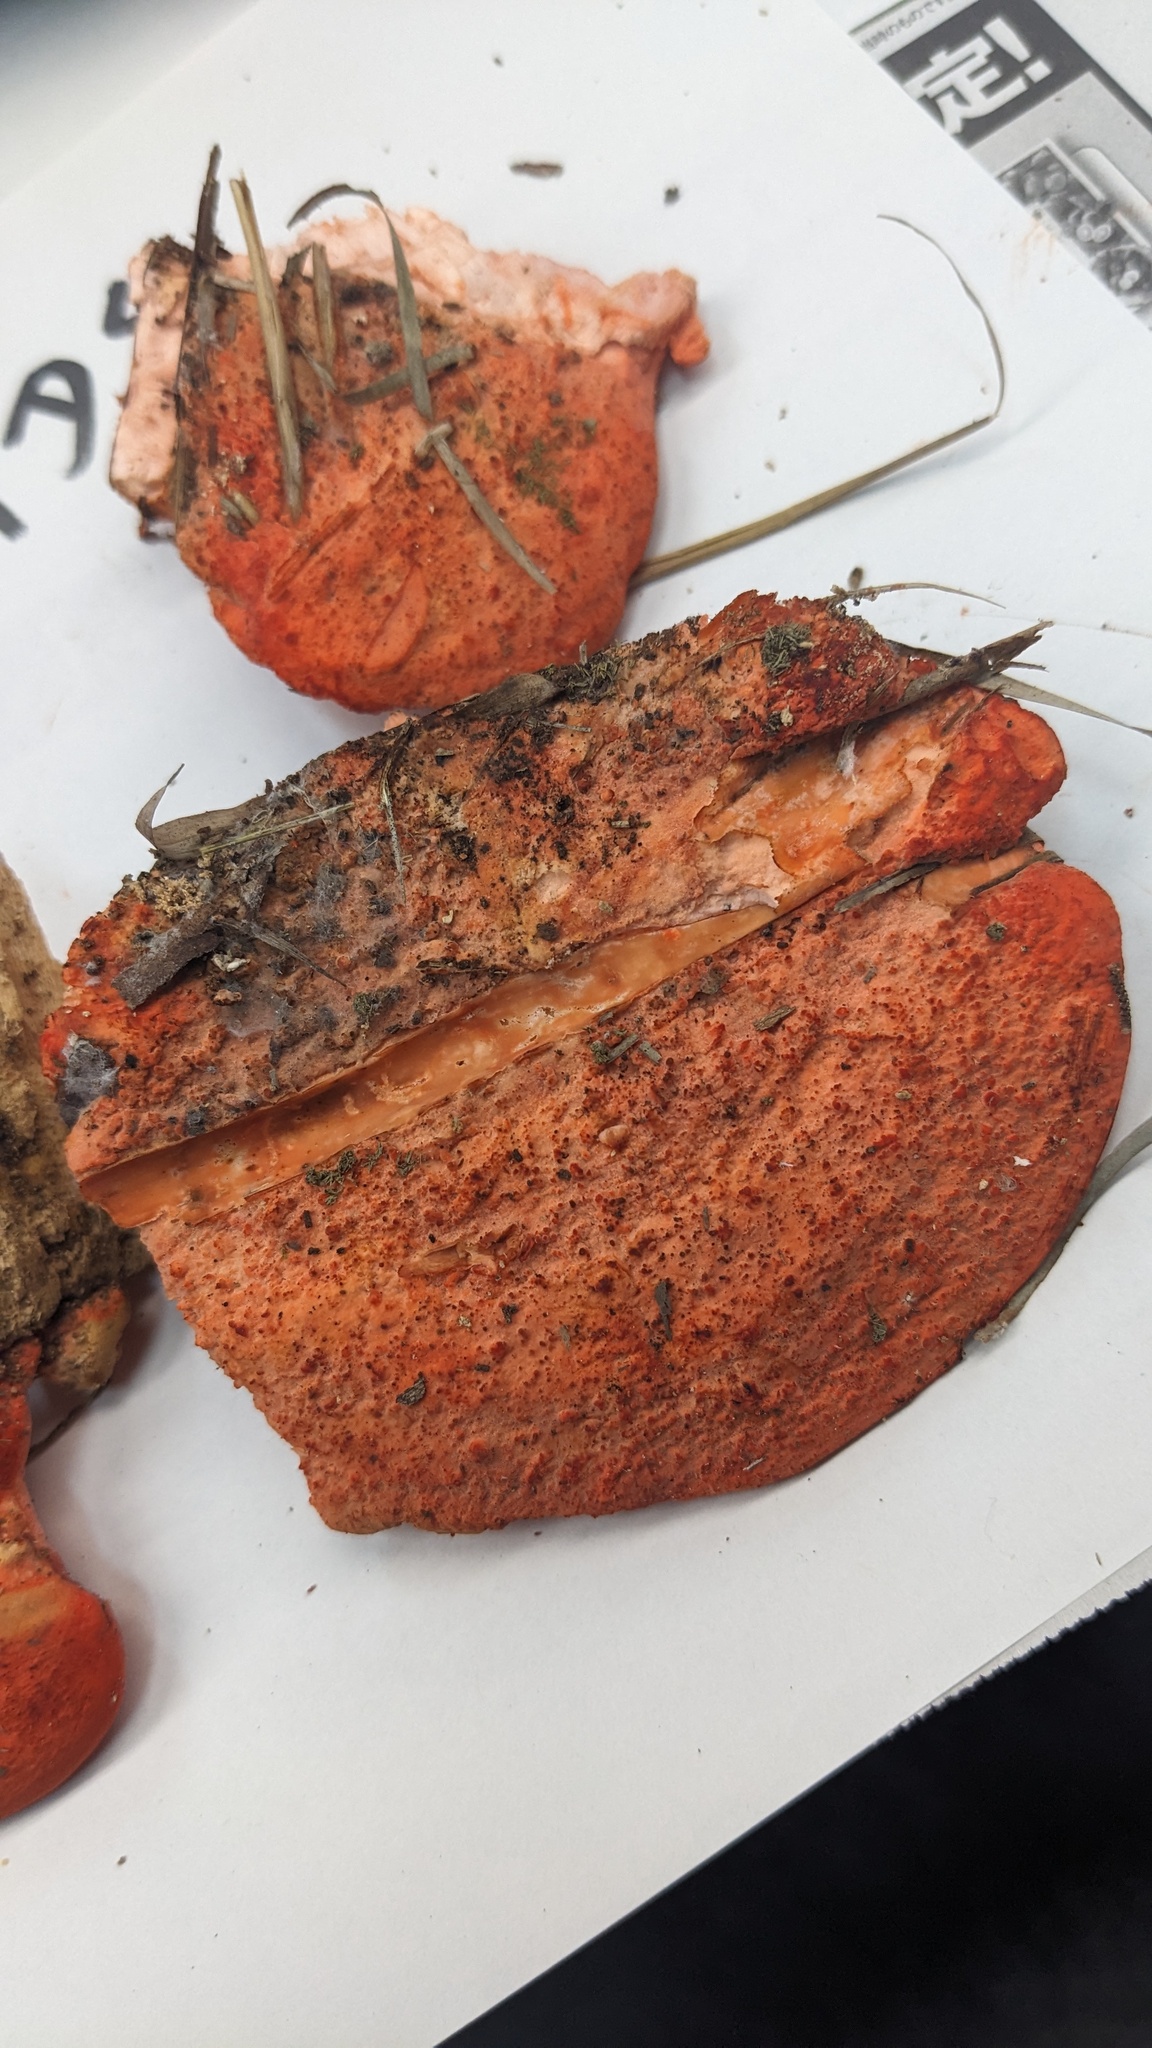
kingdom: Fungi
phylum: Basidiomycota
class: Agaricomycetes
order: Polyporales
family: Incrustoporiaceae
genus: Tyromyces
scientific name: Tyromyces incarnatus
